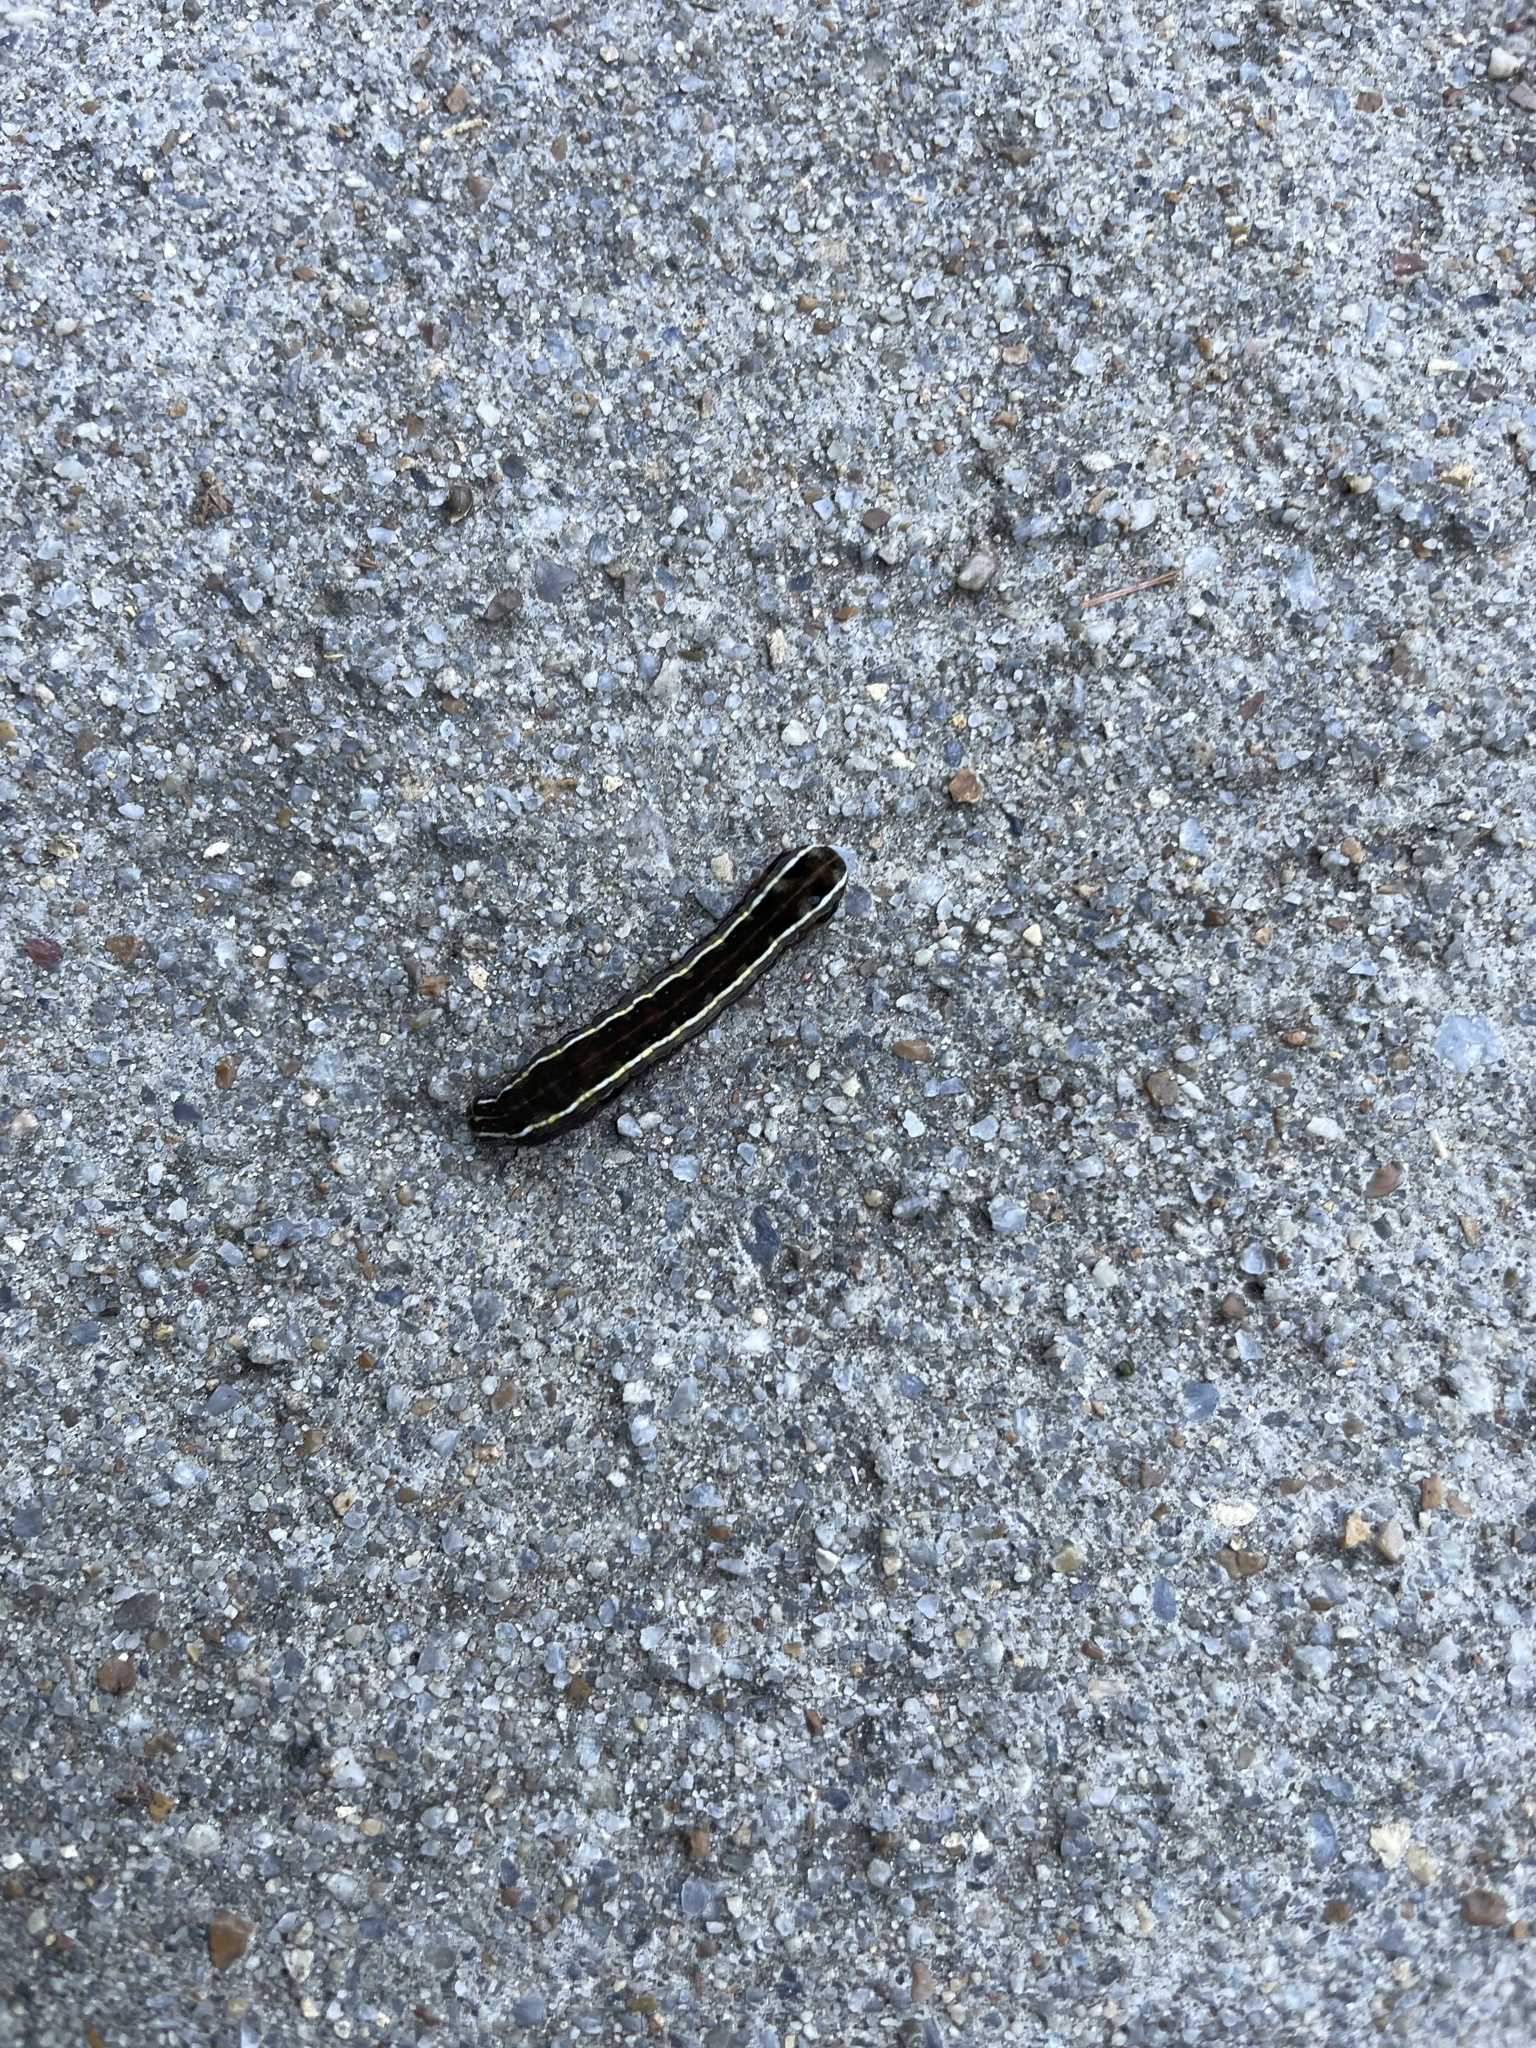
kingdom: Animalia
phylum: Arthropoda
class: Insecta
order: Lepidoptera
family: Noctuidae
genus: Spodoptera
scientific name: Spodoptera ornithogalli
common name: Yellow-striped armyworm
